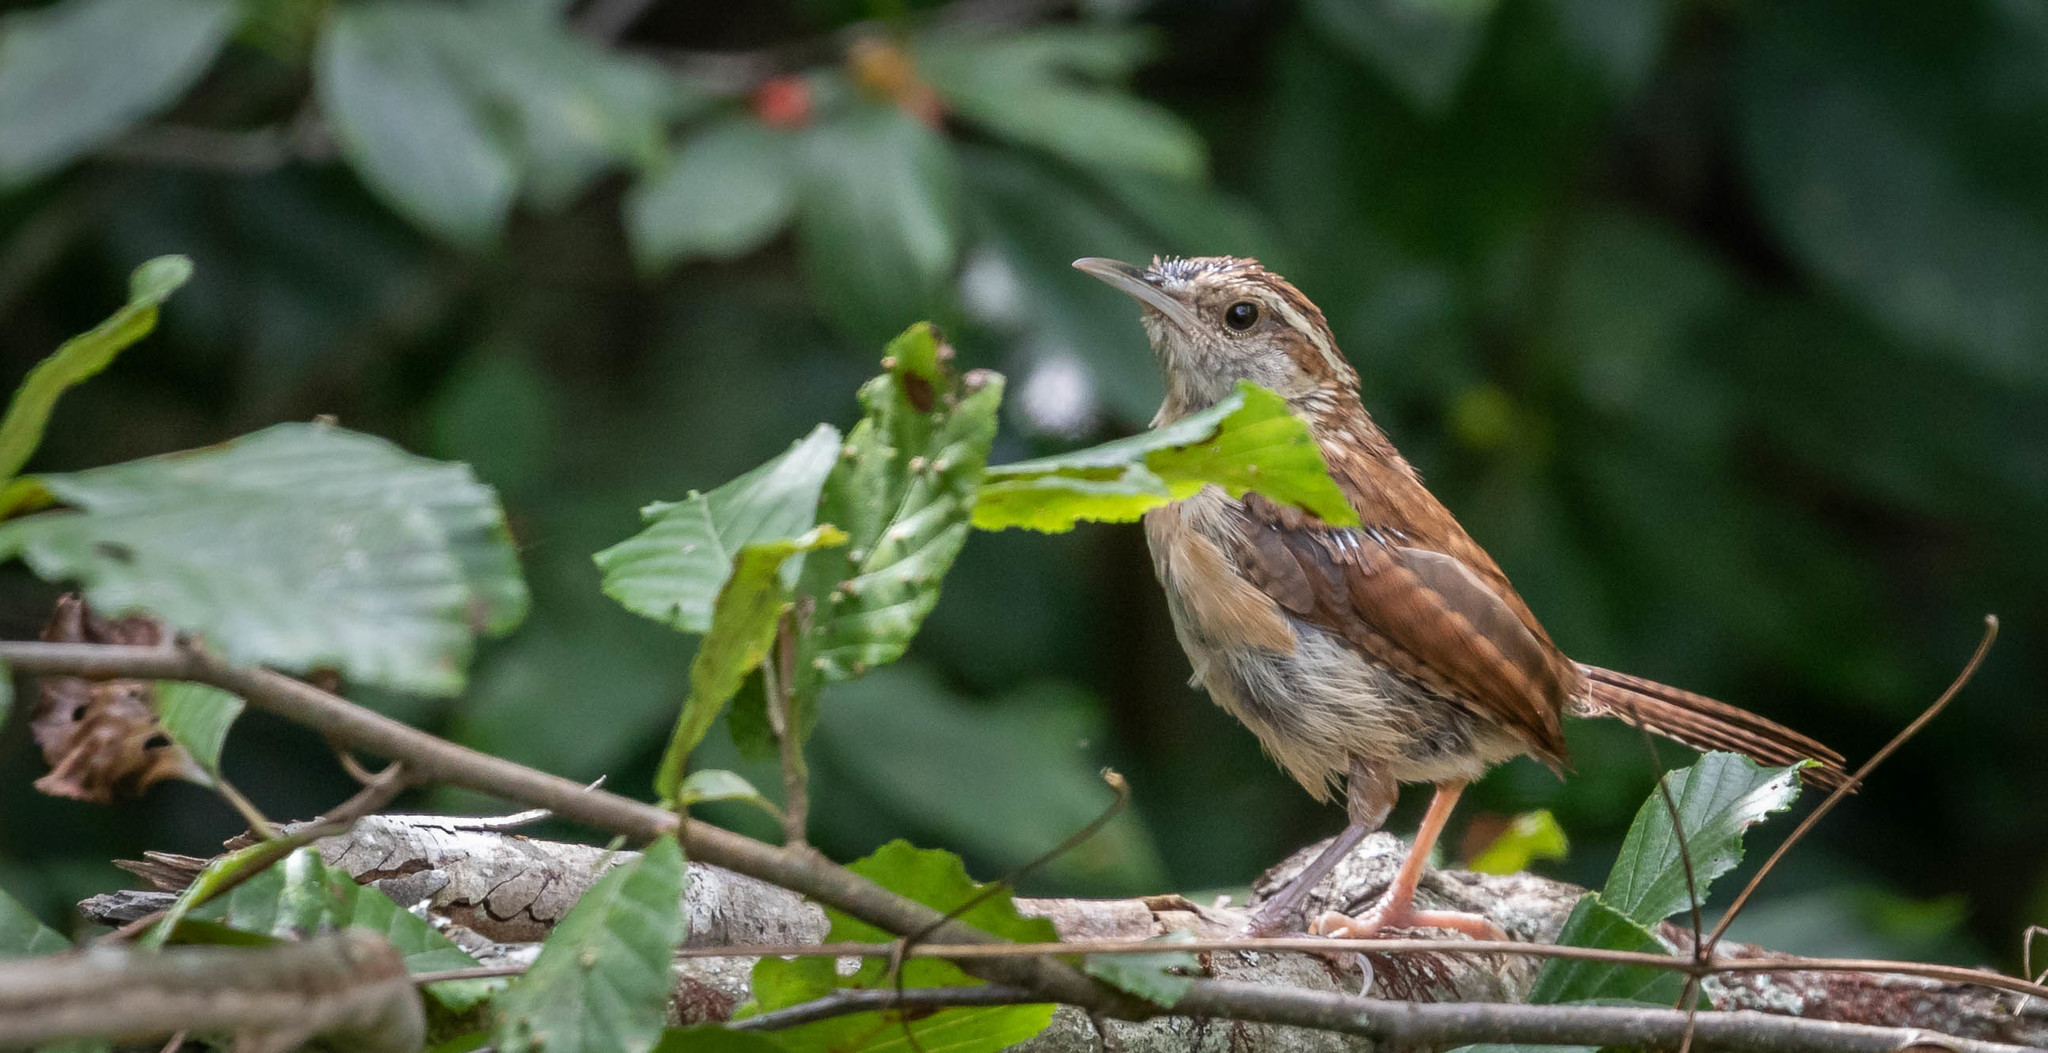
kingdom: Animalia
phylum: Chordata
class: Aves
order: Passeriformes
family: Troglodytidae
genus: Thryothorus
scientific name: Thryothorus ludovicianus
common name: Carolina wren
